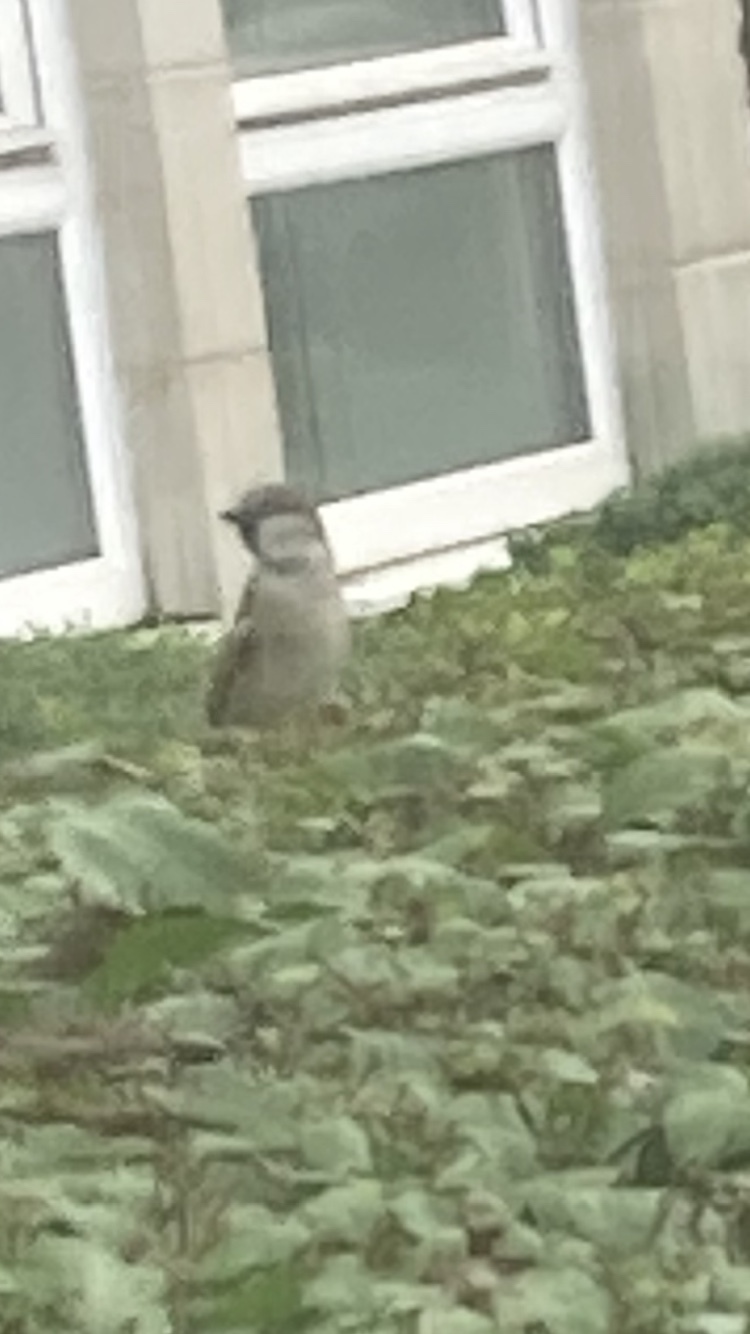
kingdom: Animalia
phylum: Chordata
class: Aves
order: Passeriformes
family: Passeridae
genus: Passer
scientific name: Passer domesticus
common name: House sparrow
